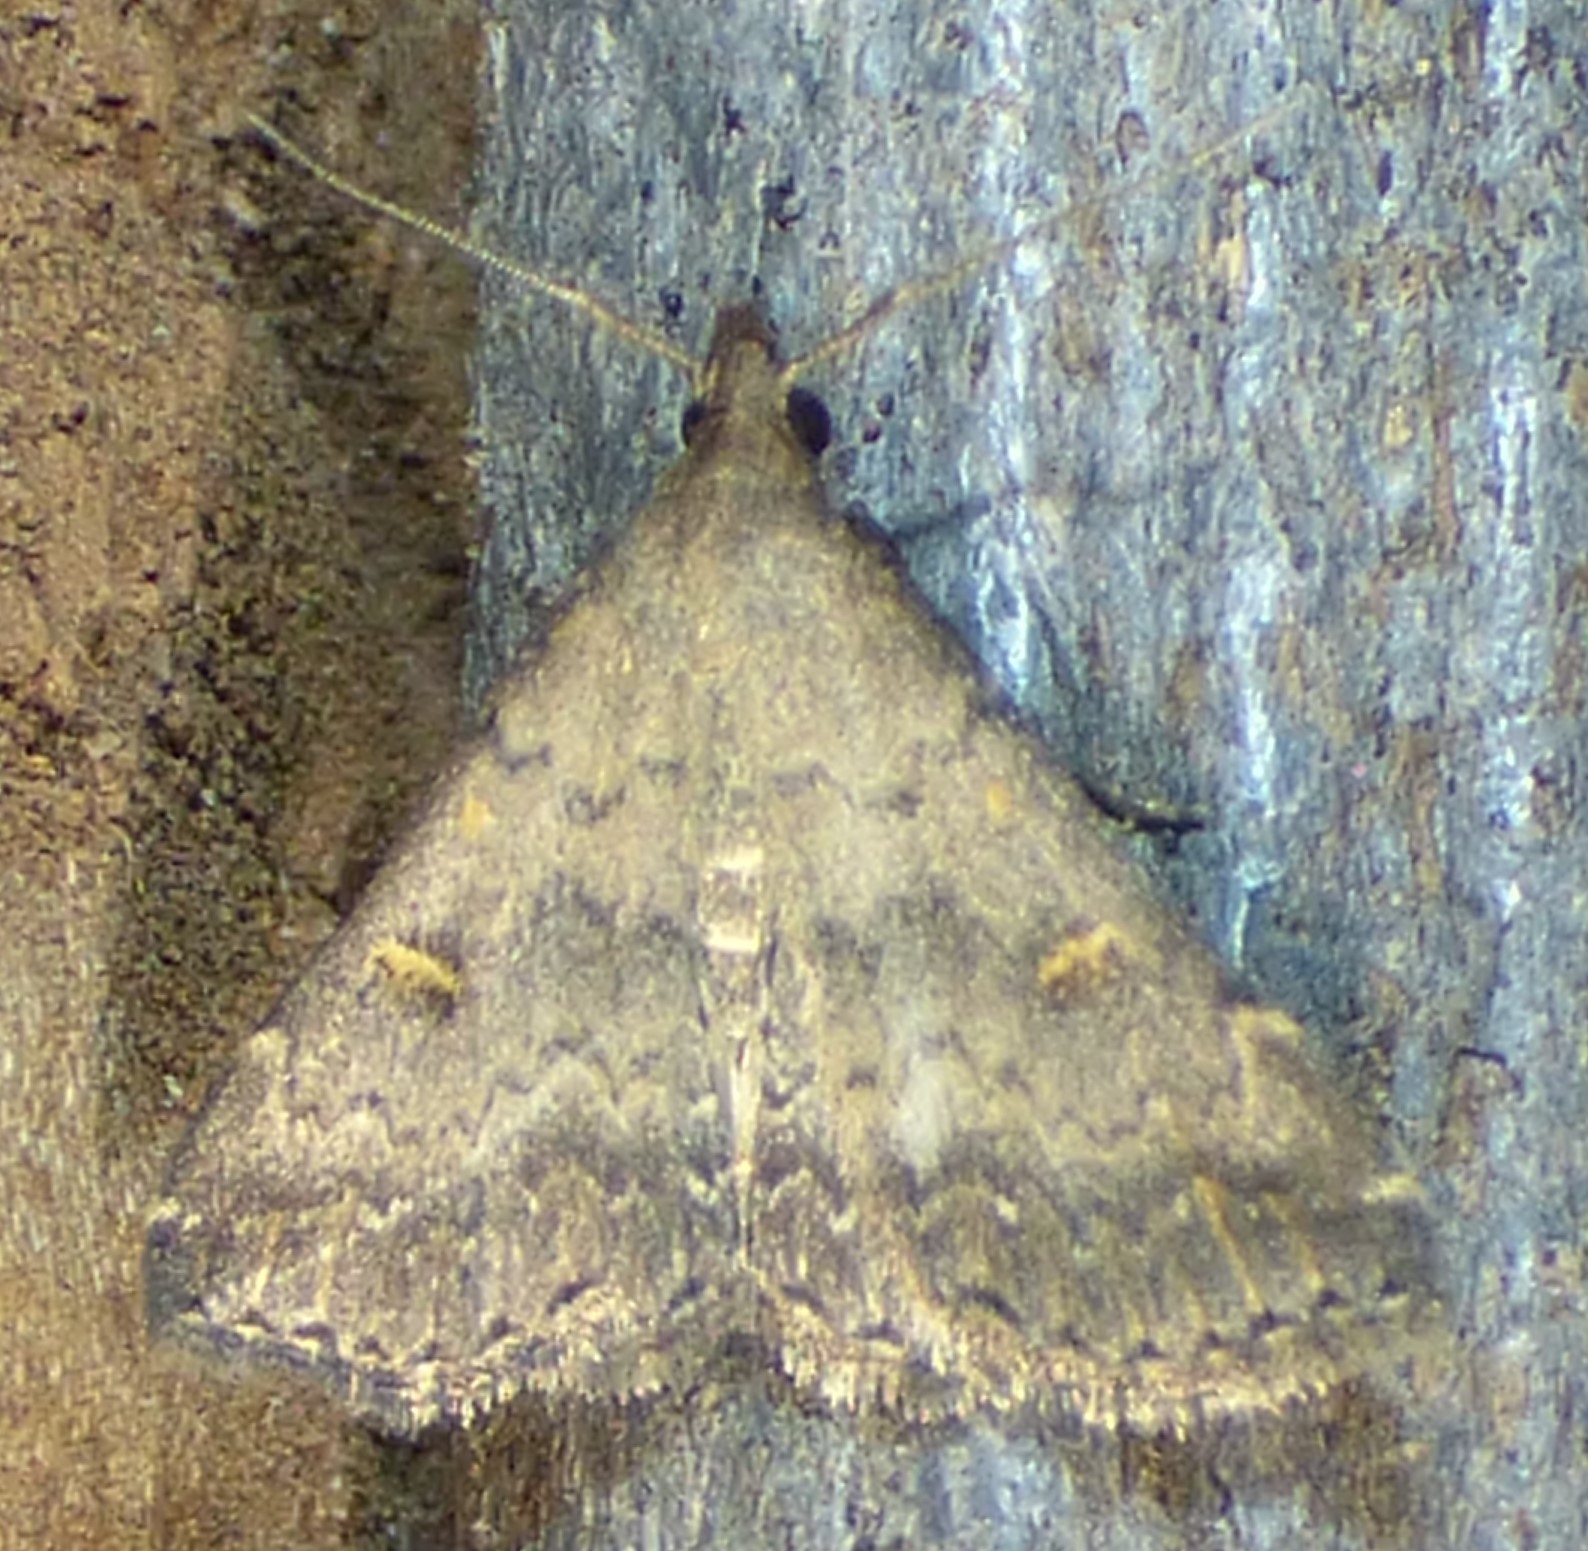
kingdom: Animalia
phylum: Arthropoda
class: Insecta
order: Lepidoptera
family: Erebidae
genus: Tetanolita
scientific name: Tetanolita floridana
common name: Florida tetanolita moth
